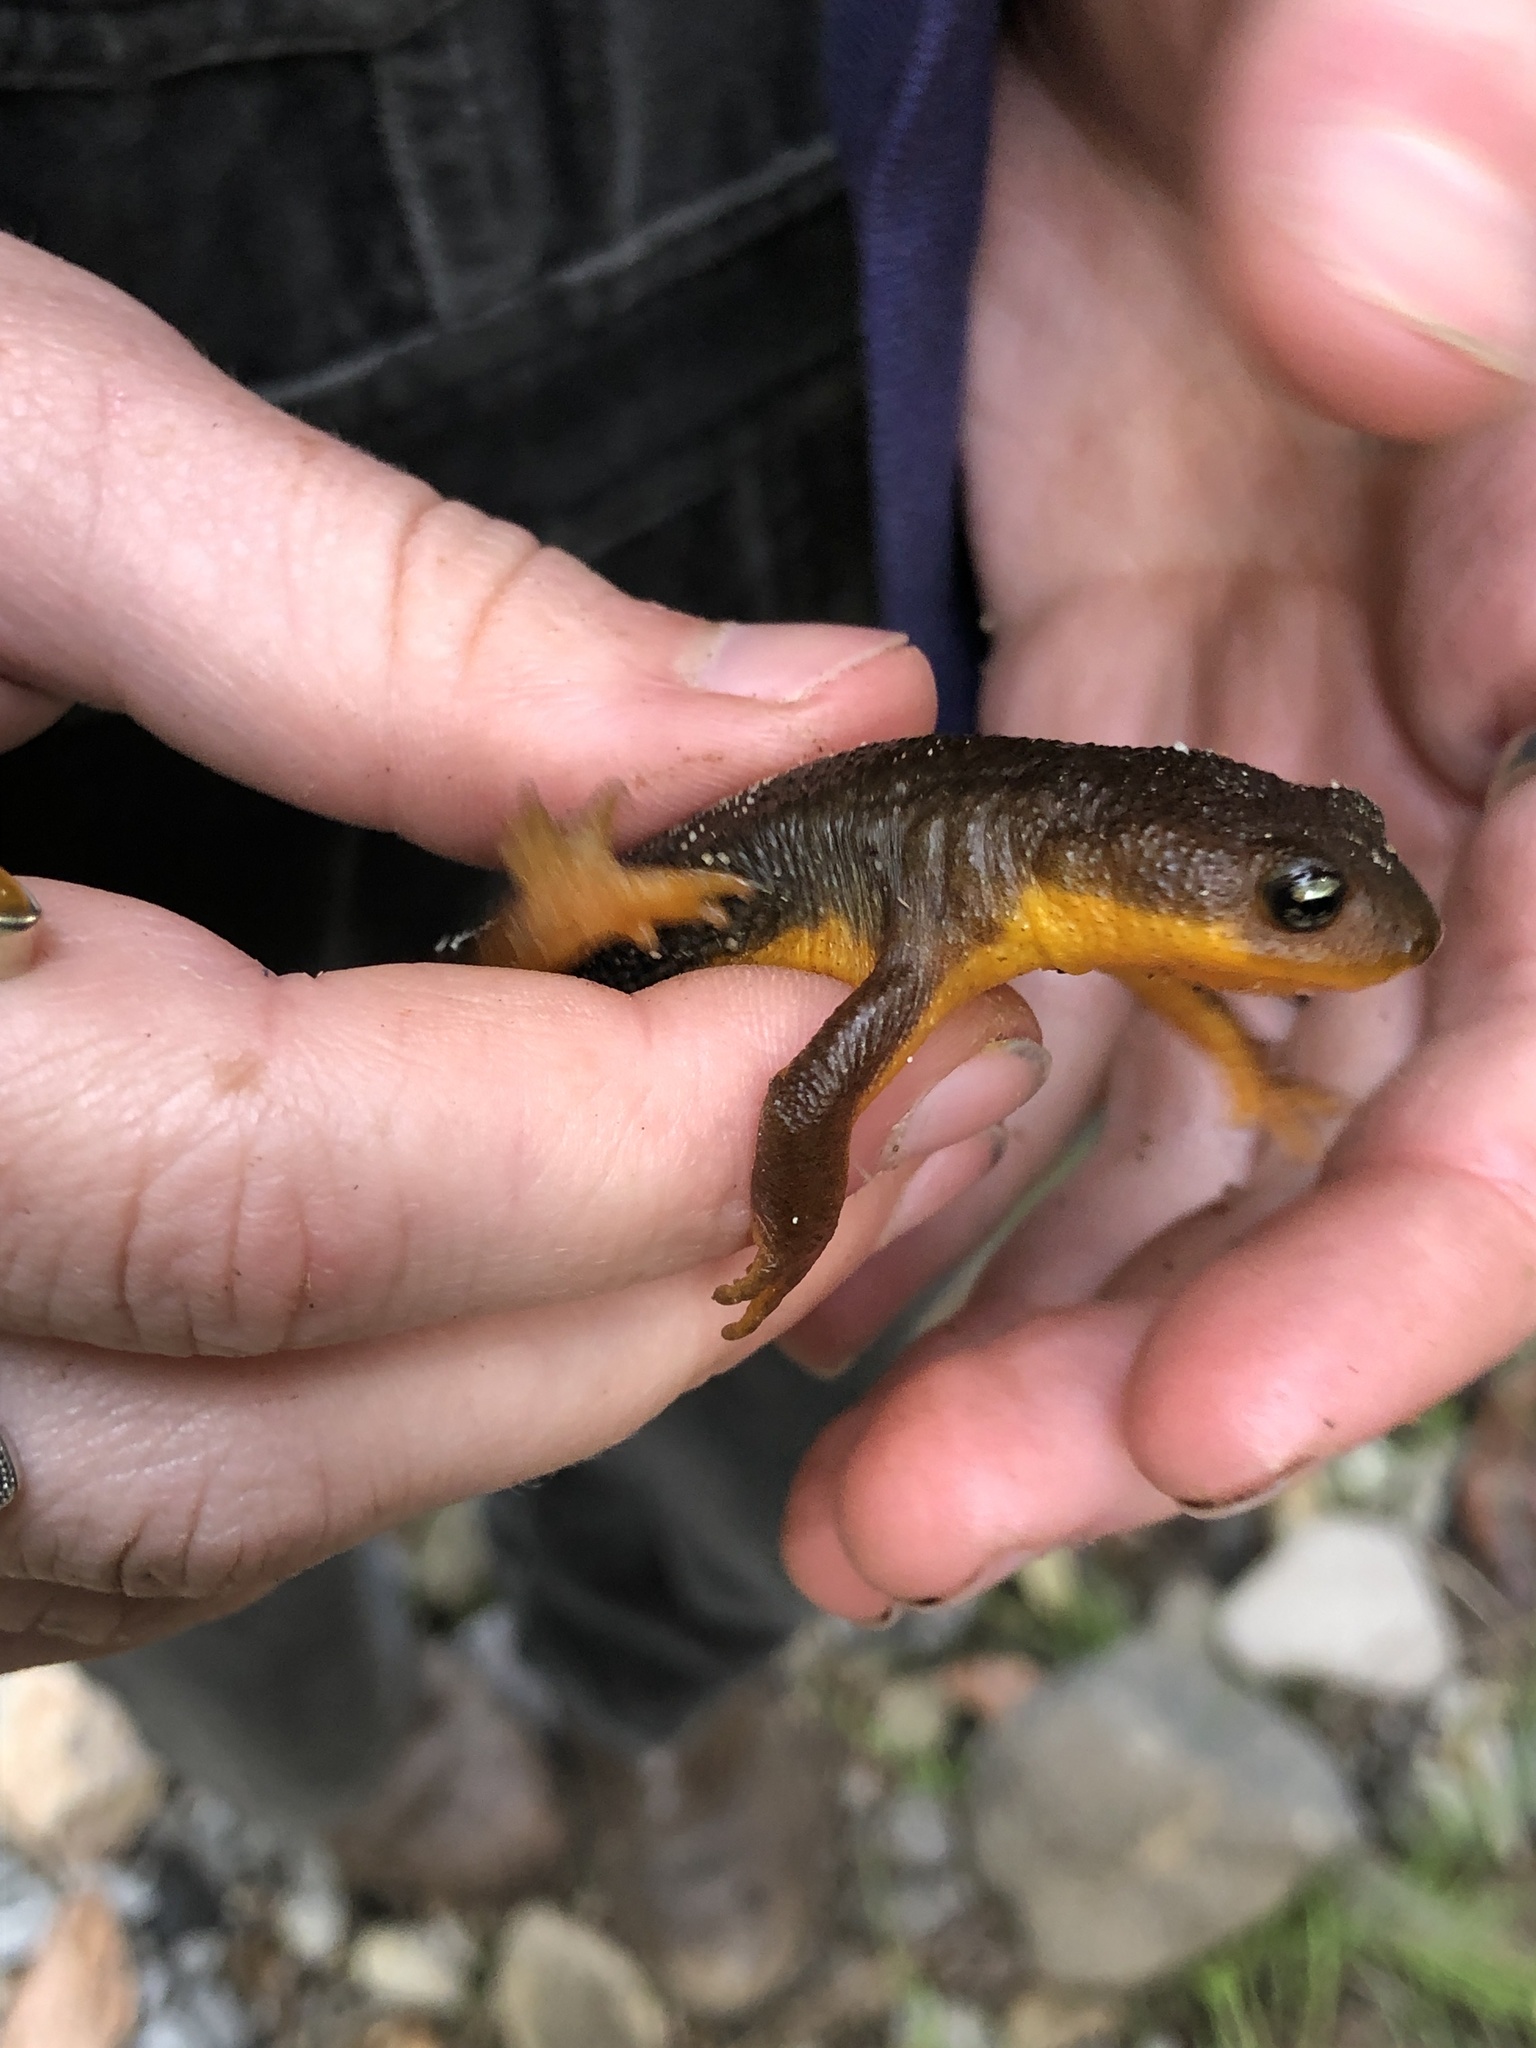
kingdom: Animalia
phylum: Chordata
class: Amphibia
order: Caudata
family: Salamandridae
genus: Taricha
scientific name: Taricha
